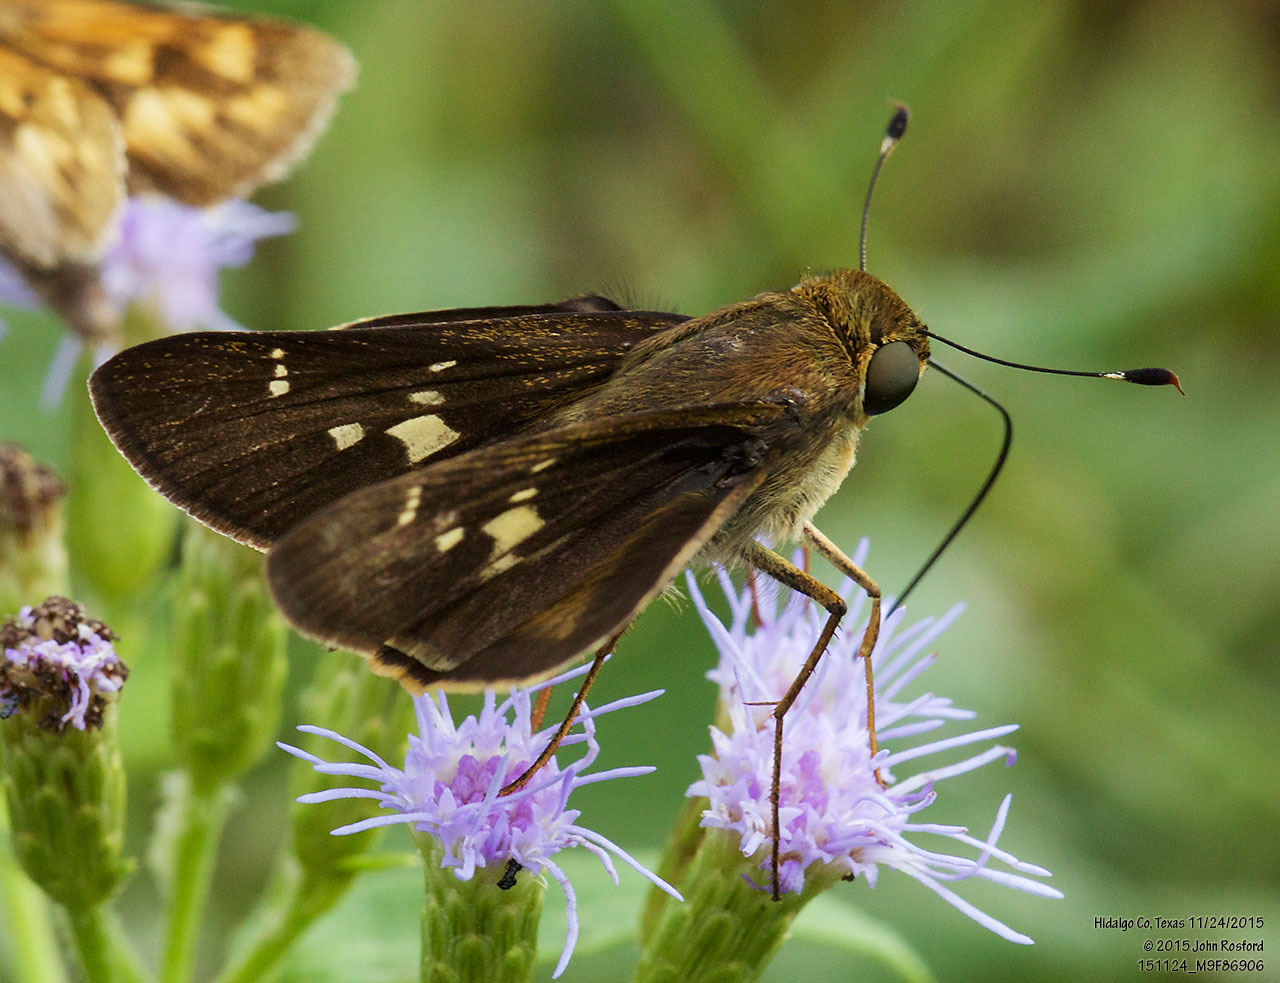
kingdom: Animalia
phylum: Arthropoda
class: Insecta
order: Lepidoptera
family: Hesperiidae
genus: Nyctelius
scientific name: Nyctelius nyctelius
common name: Violet-banded skipper
